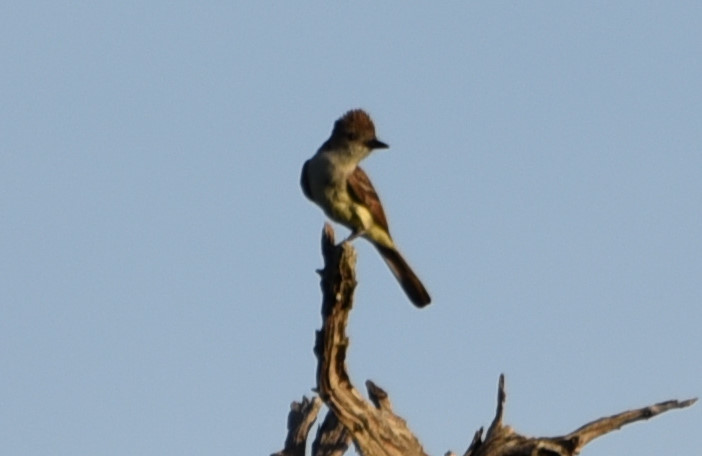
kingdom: Animalia
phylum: Chordata
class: Aves
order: Passeriformes
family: Tyrannidae
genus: Myiarchus
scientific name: Myiarchus cinerascens
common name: Ash-throated flycatcher
